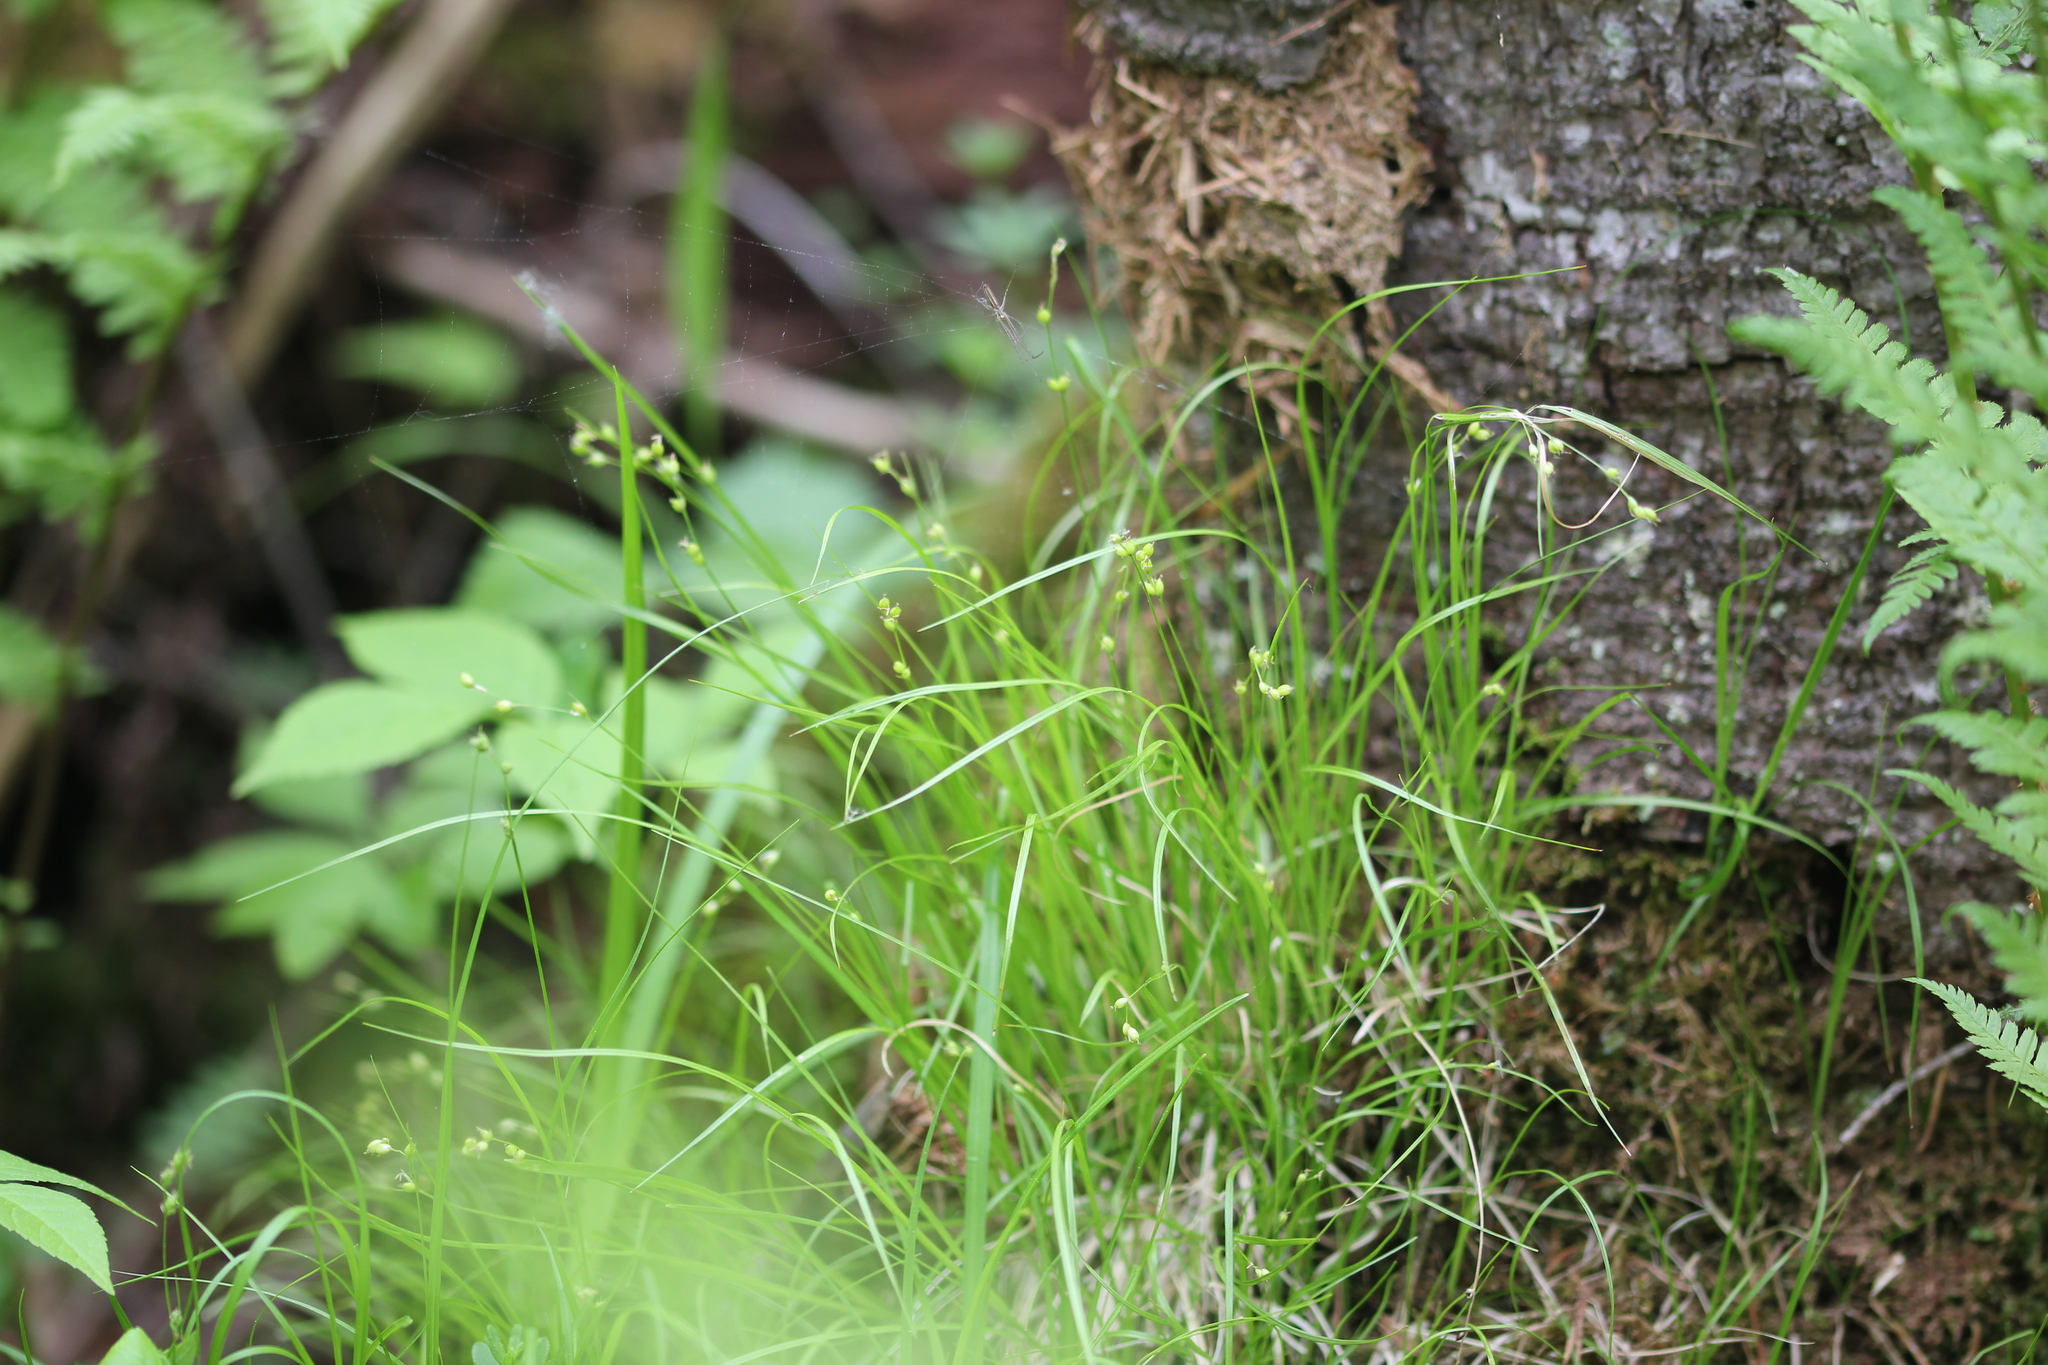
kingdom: Plantae
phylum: Tracheophyta
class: Liliopsida
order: Poales
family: Cyperaceae
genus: Carex
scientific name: Carex disperma
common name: Short-leaved sedge
